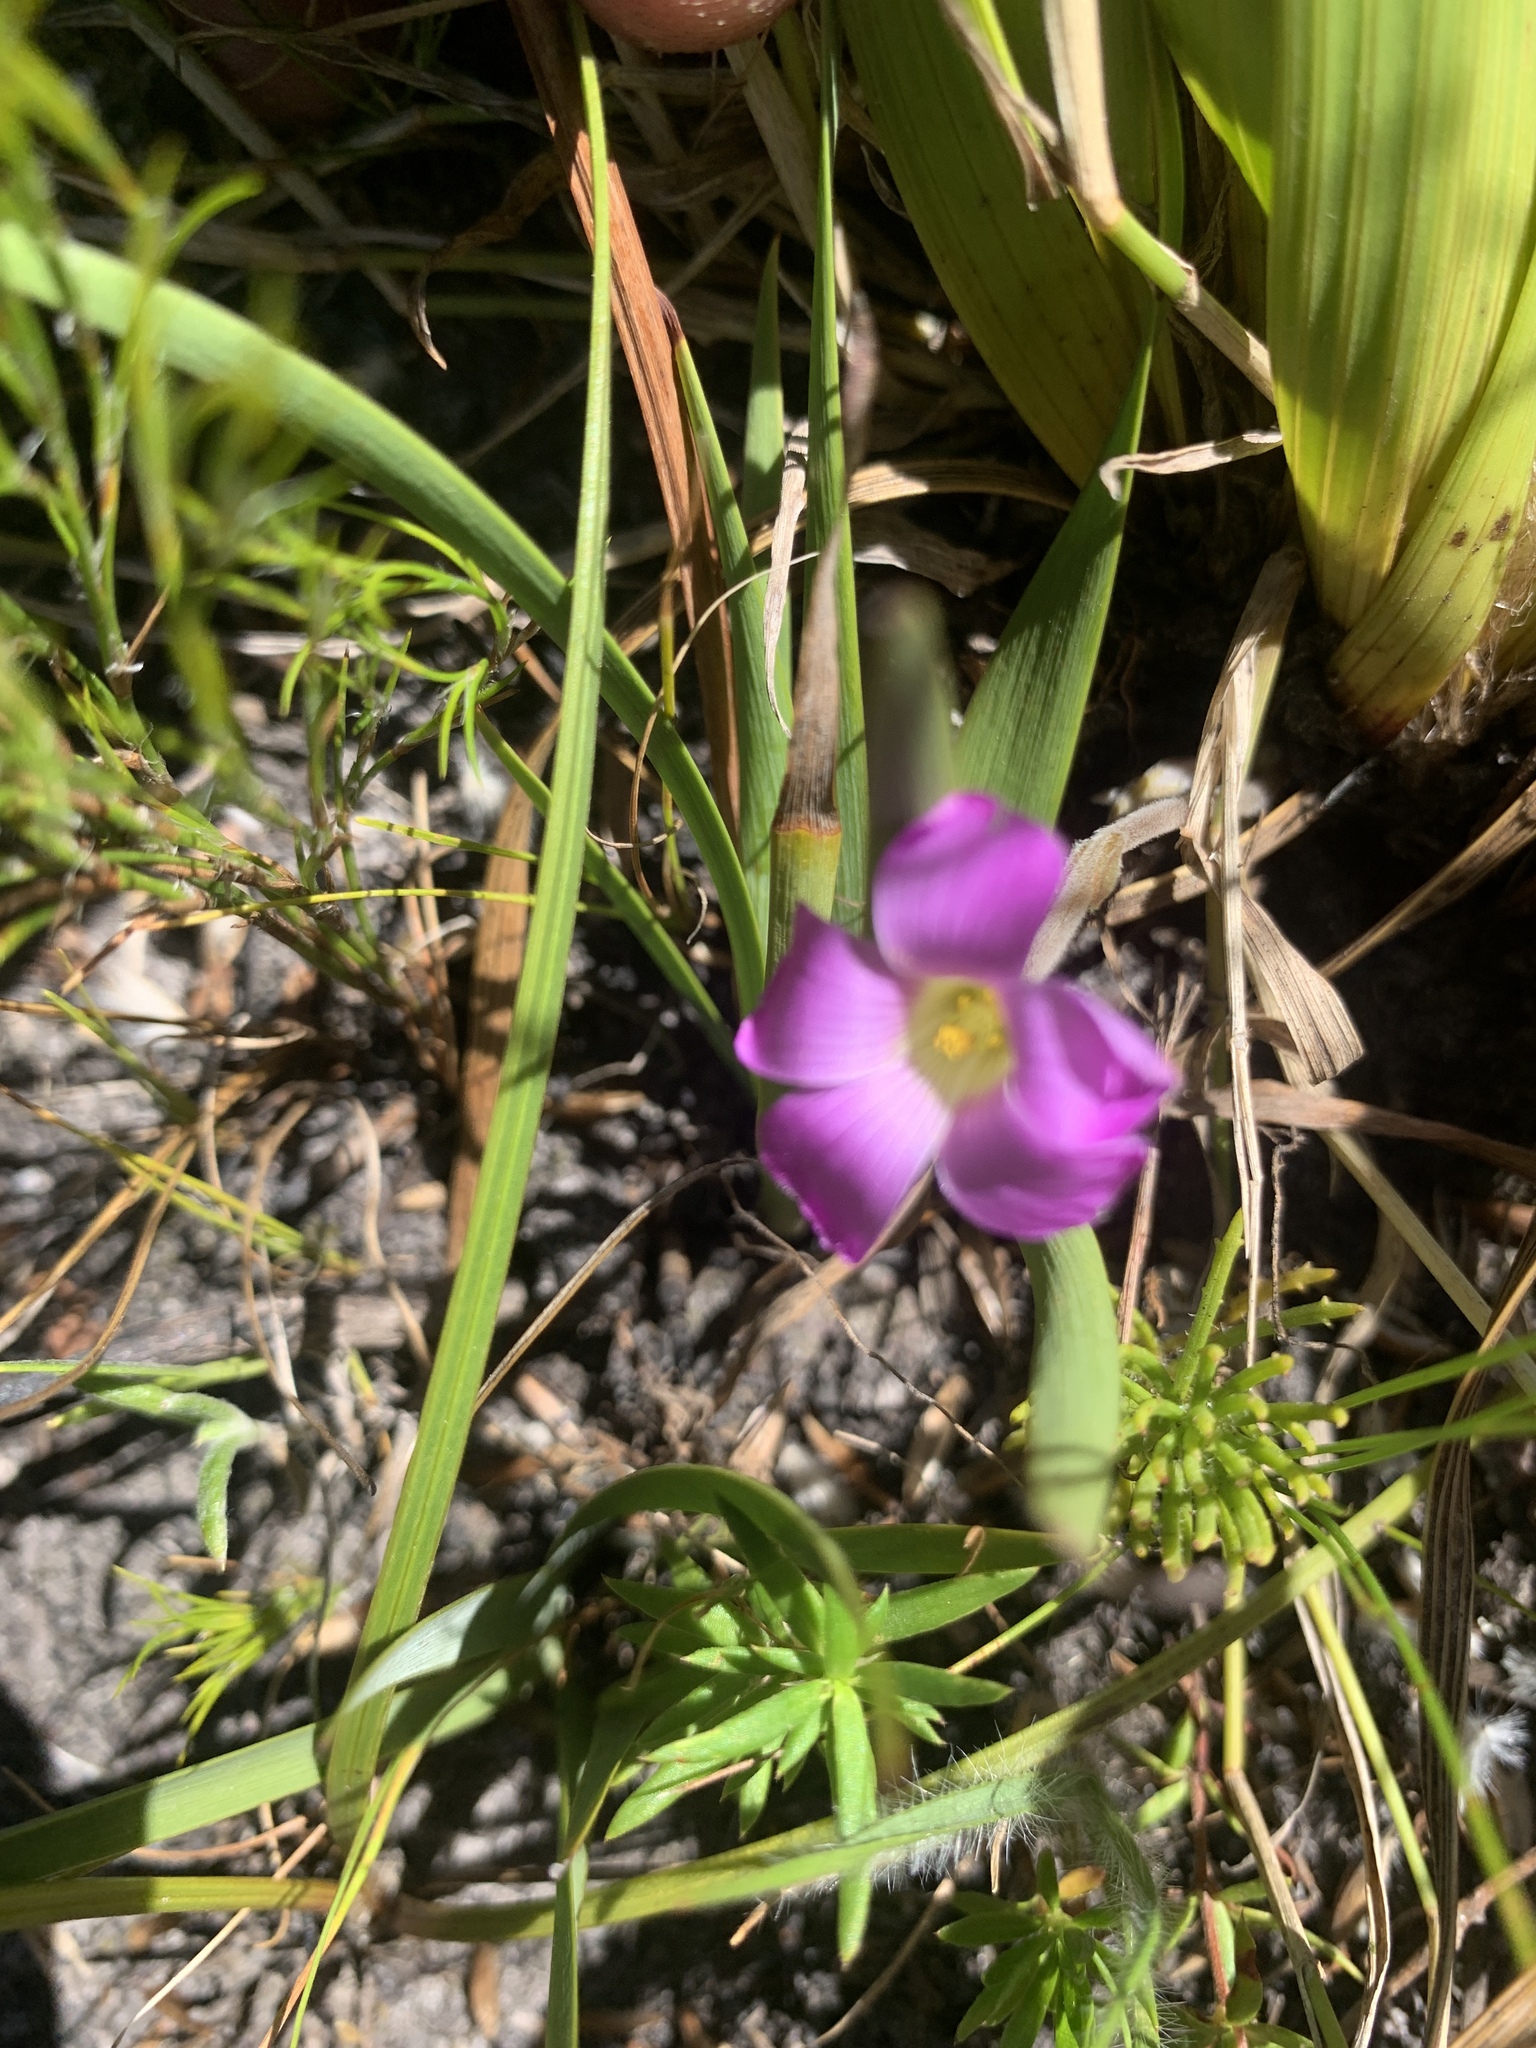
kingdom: Plantae
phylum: Tracheophyta
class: Magnoliopsida
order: Oxalidales
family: Oxalidaceae
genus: Oxalis
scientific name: Oxalis truncatula
